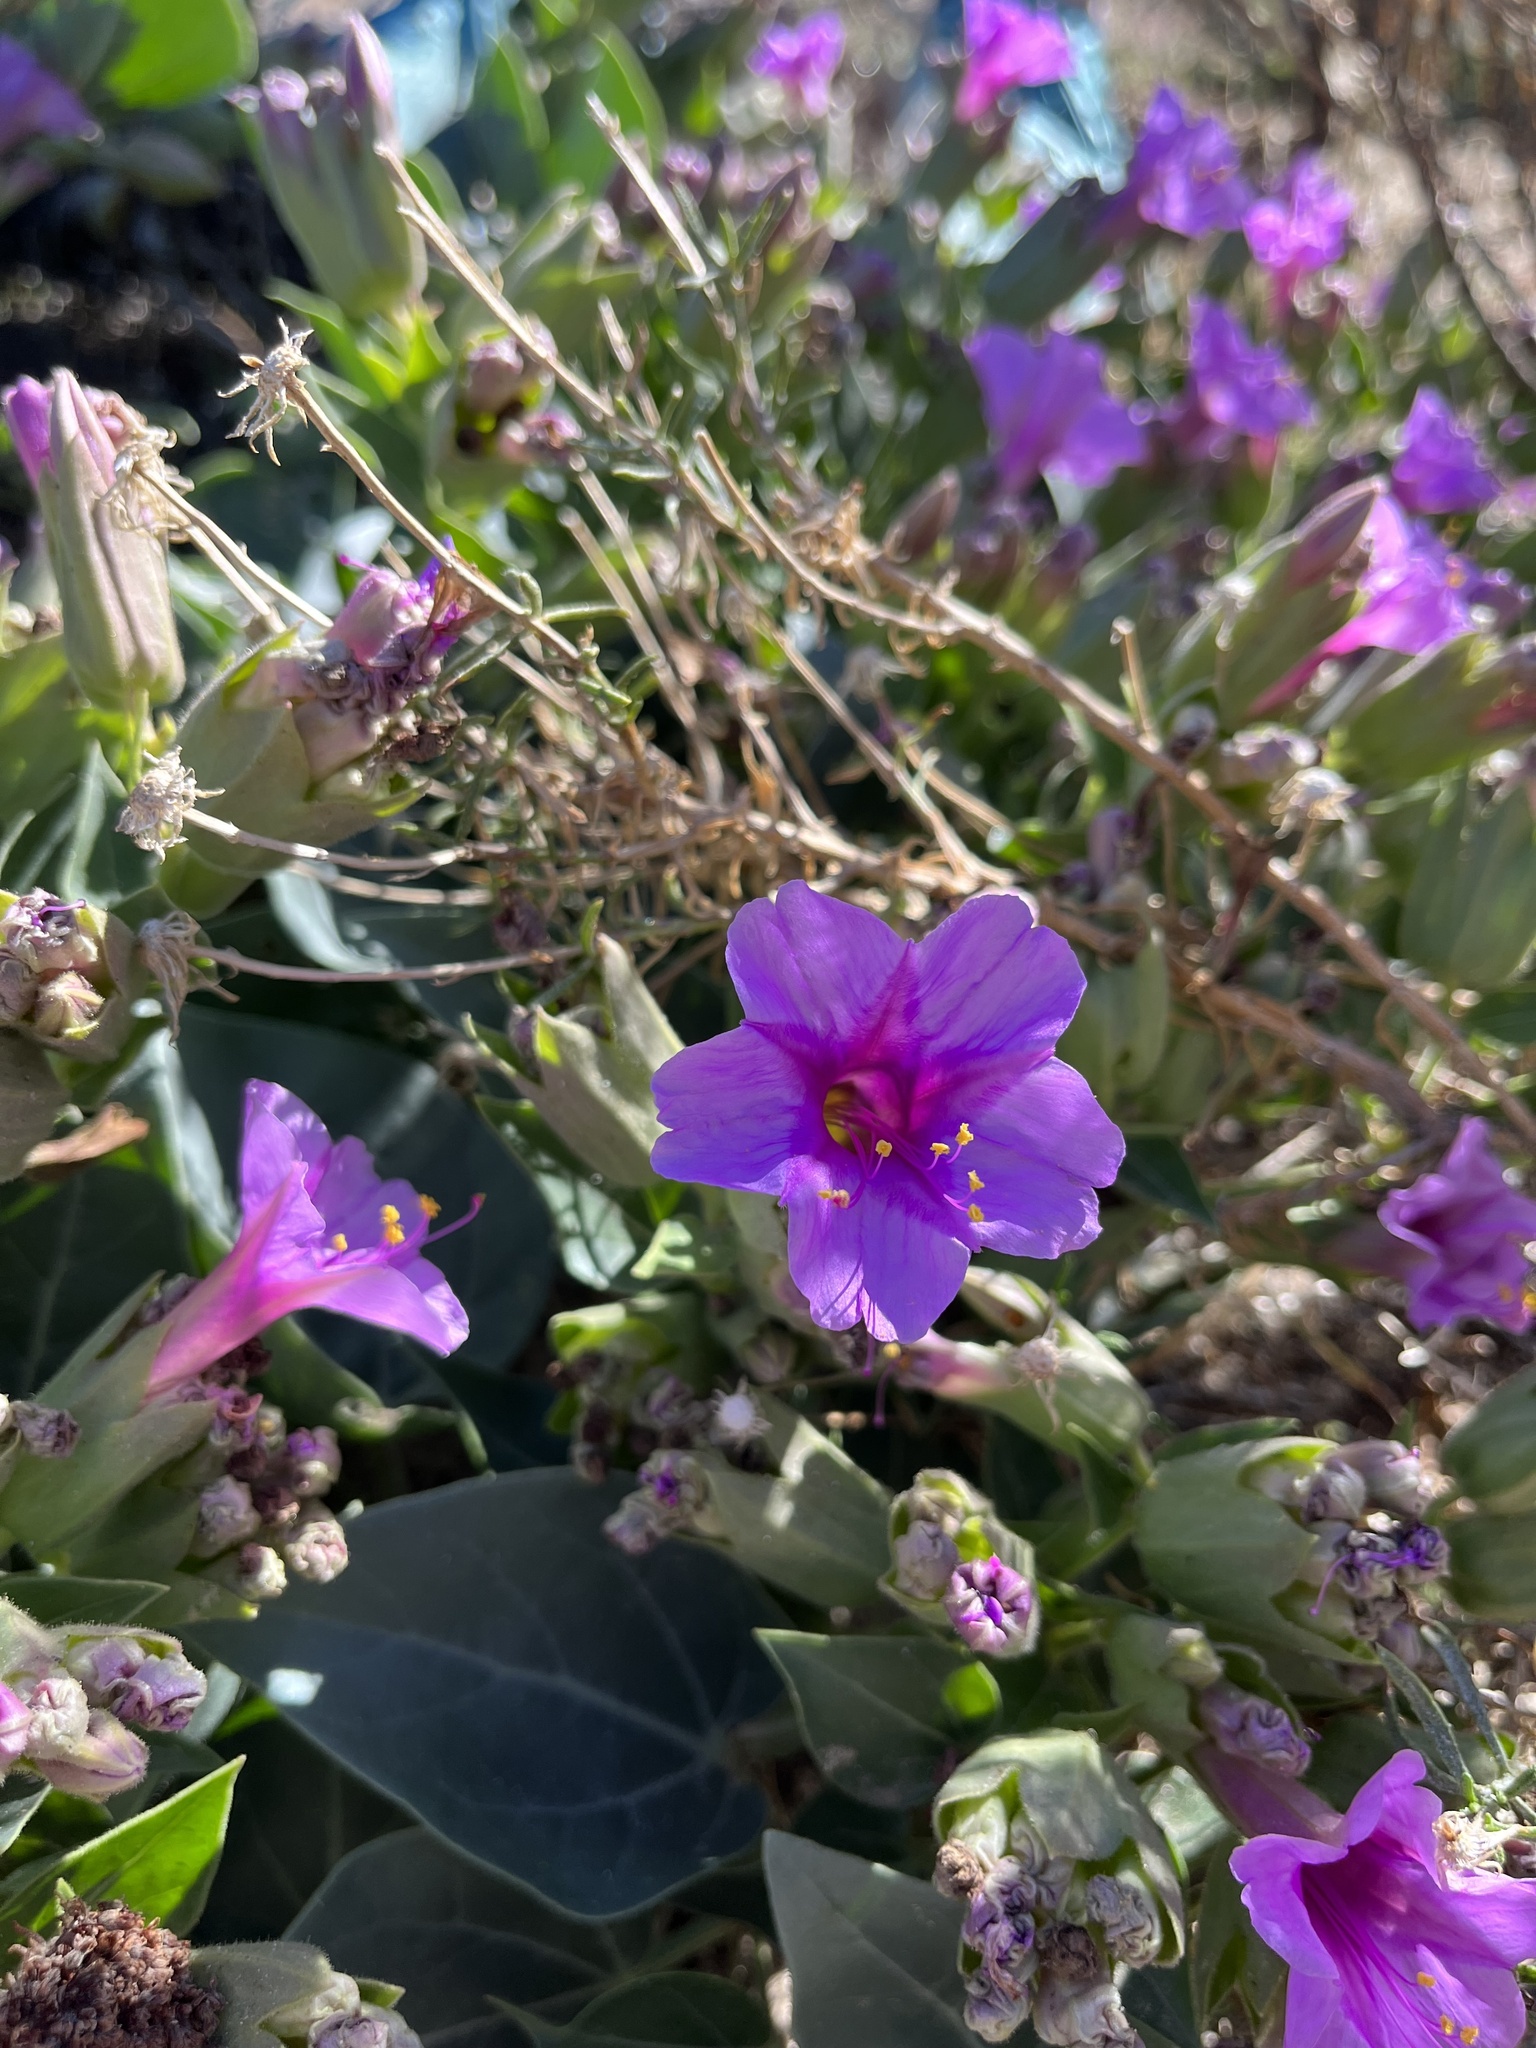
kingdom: Plantae
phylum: Tracheophyta
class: Magnoliopsida
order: Caryophyllales
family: Nyctaginaceae
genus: Mirabilis
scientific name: Mirabilis multiflora
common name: Froebel's four-o'clock
